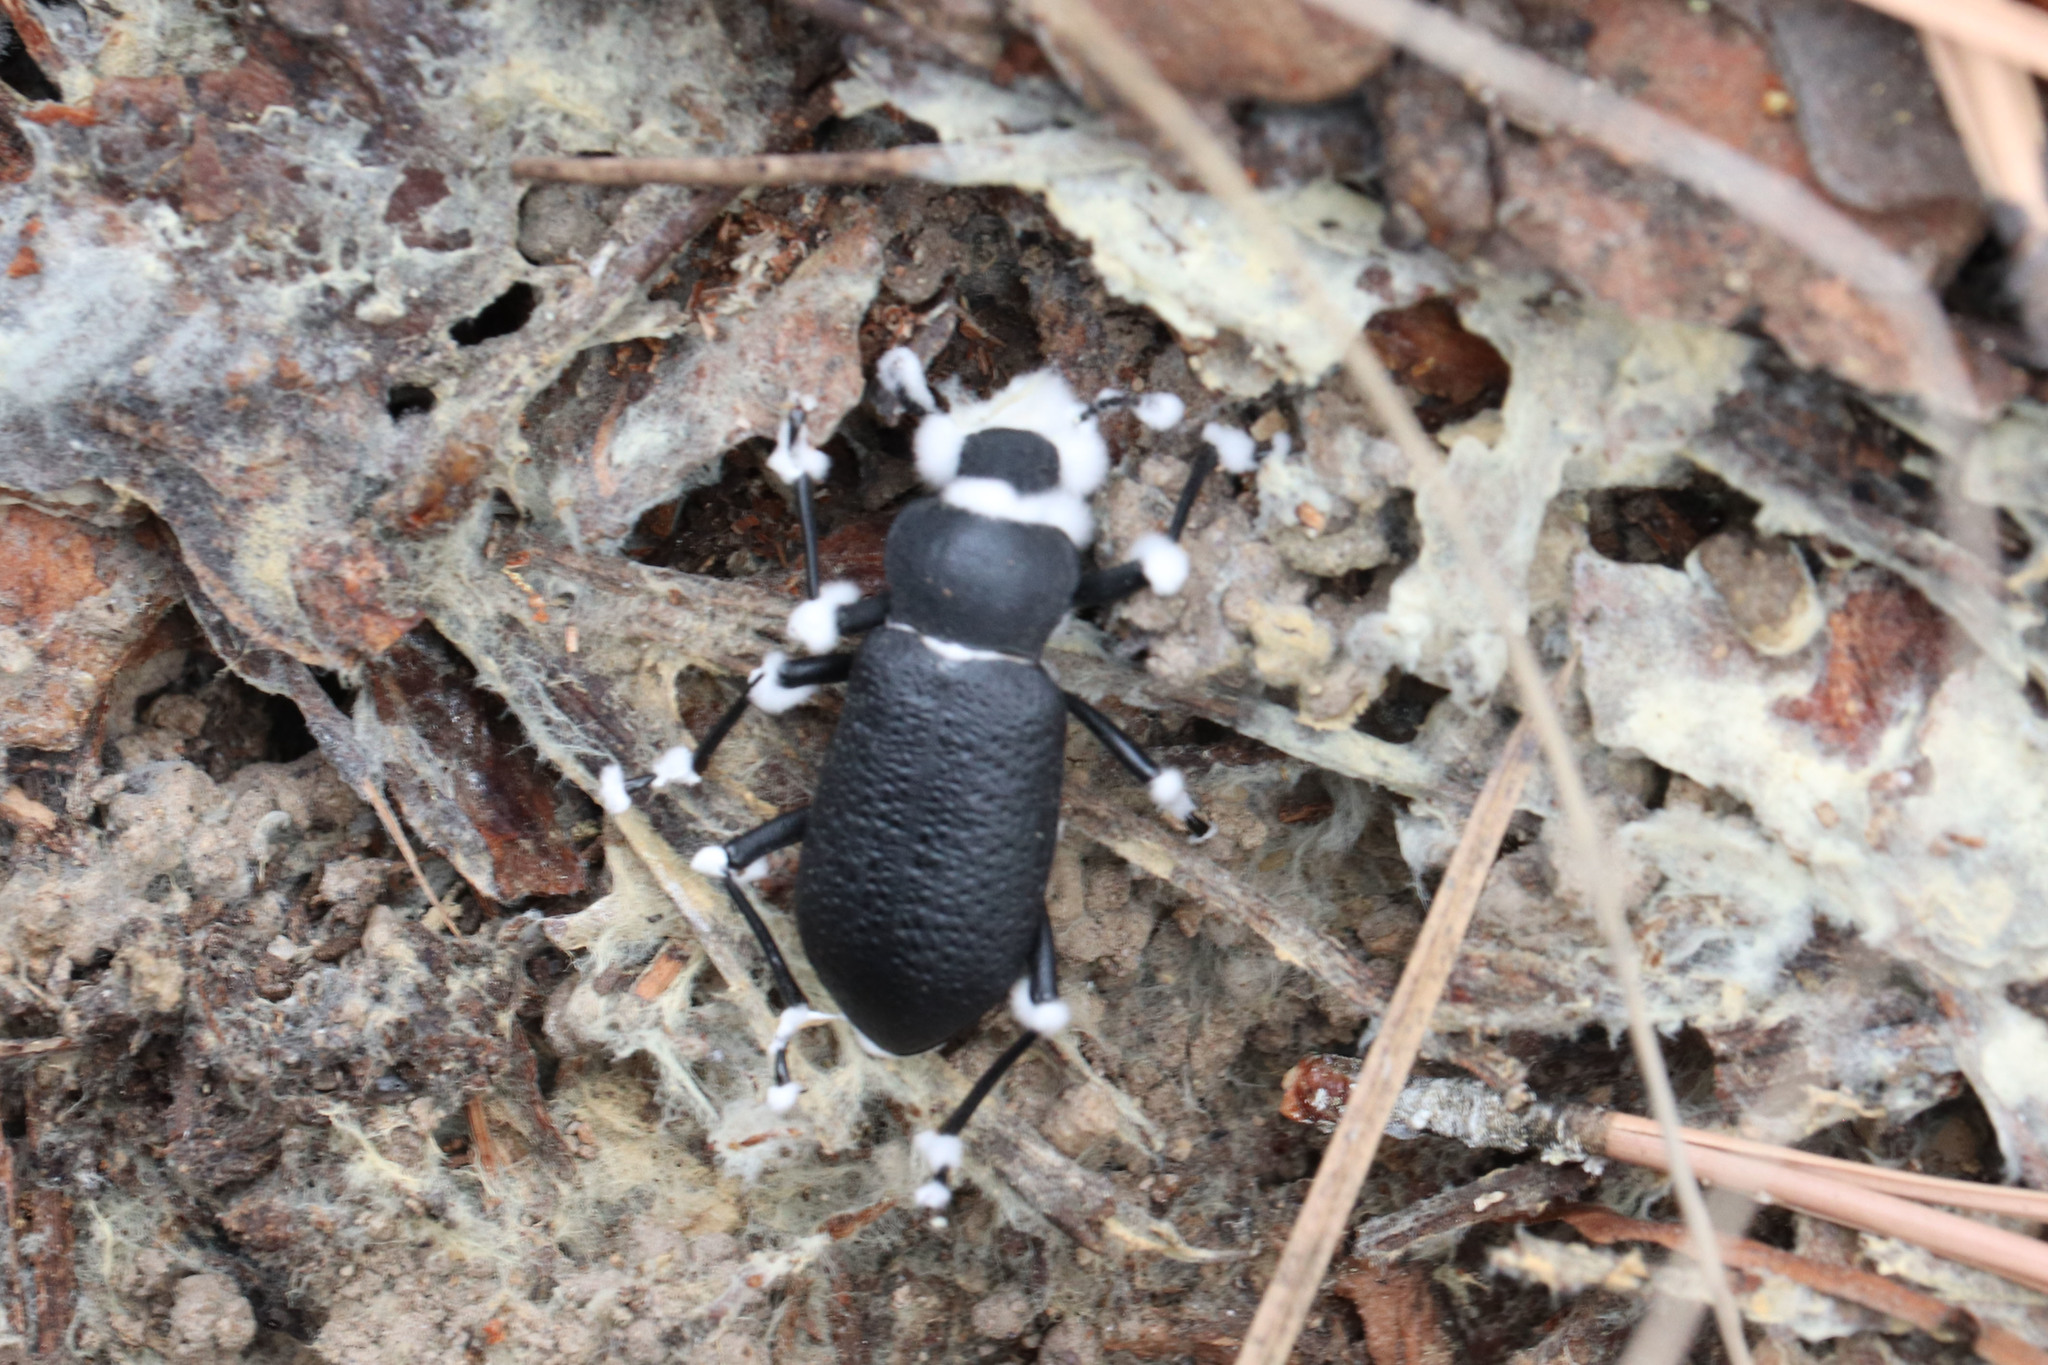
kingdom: Animalia
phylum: Arthropoda
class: Insecta
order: Coleoptera
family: Tenebrionidae
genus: Iphthiminus
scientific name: Iphthiminus serratus
